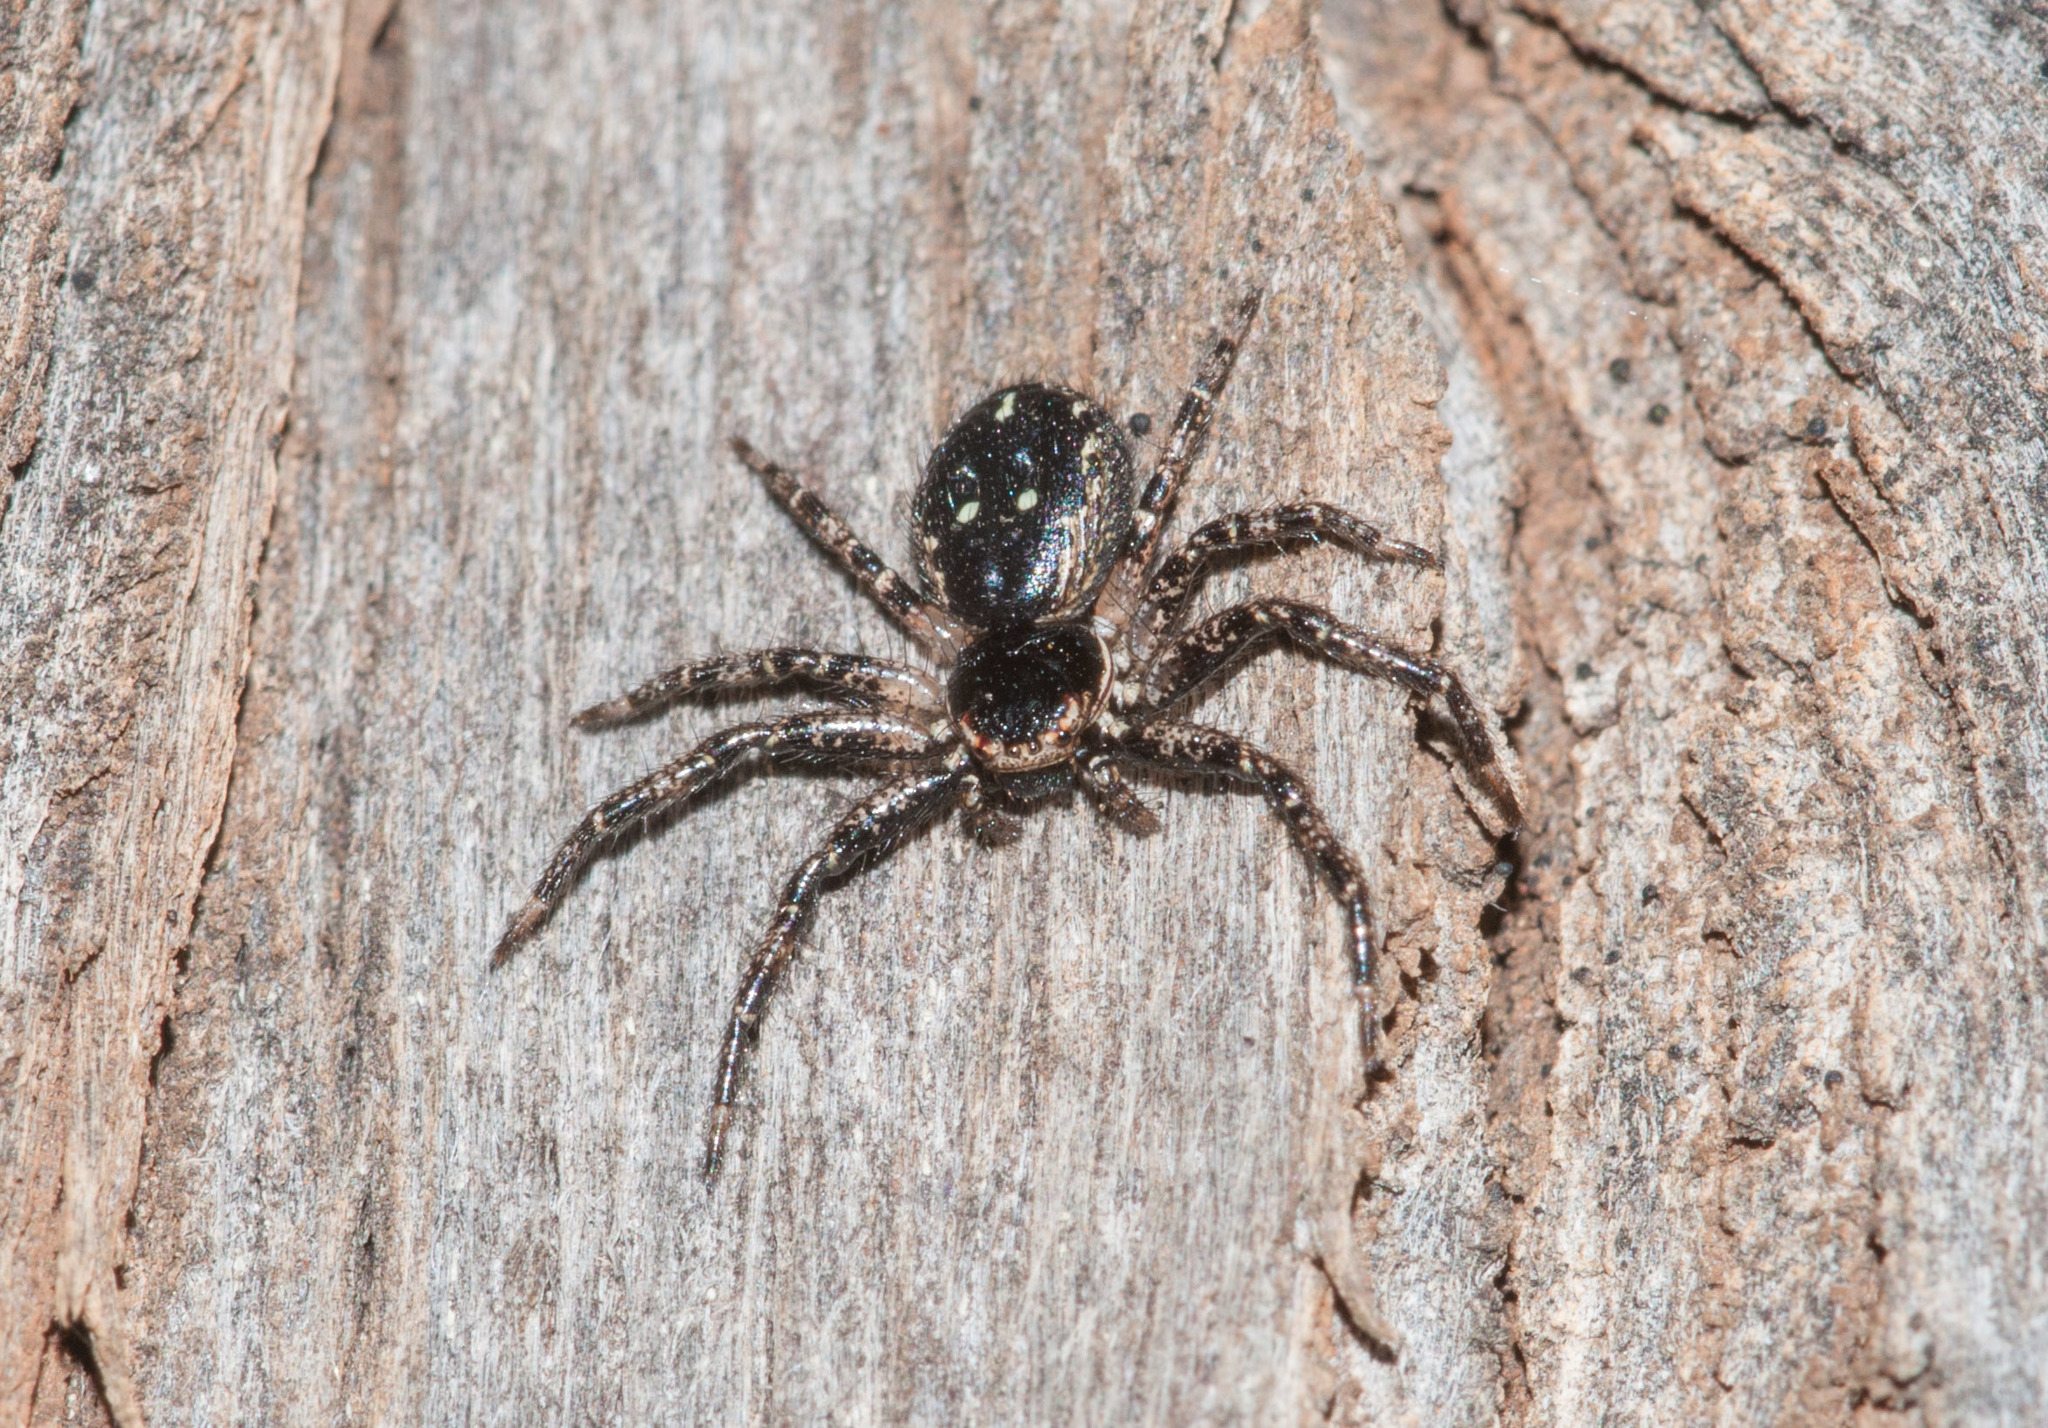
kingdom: Animalia
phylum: Arthropoda
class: Arachnida
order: Araneae
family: Thomisidae
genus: Tharpyna
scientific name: Tharpyna campestrata
